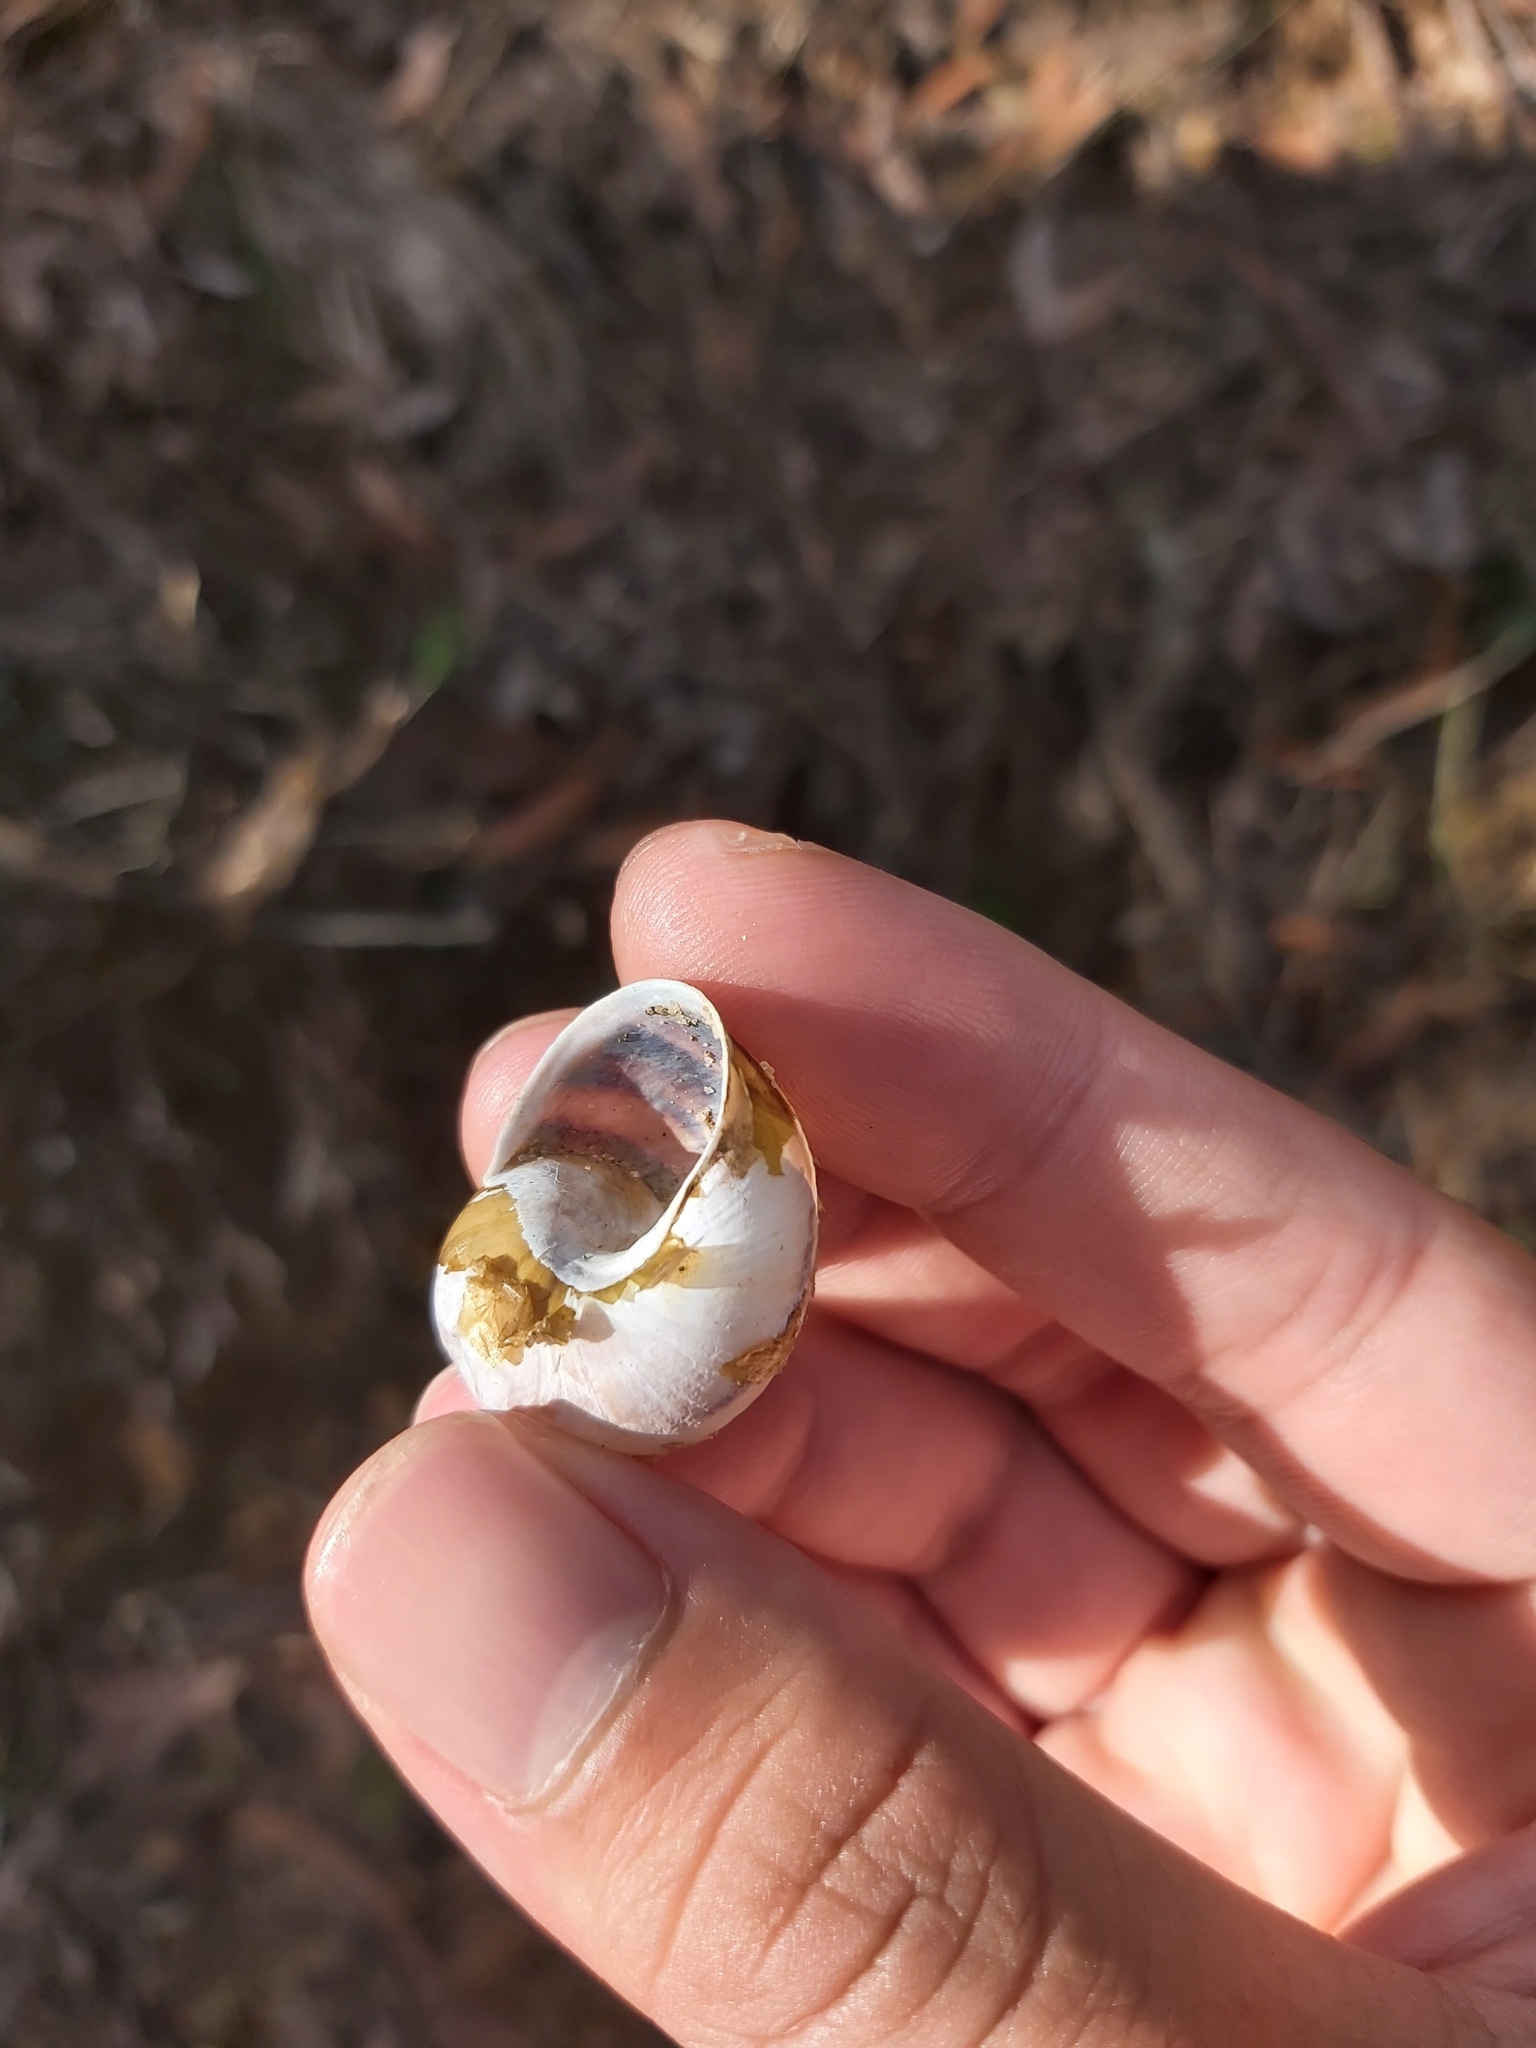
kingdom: Animalia
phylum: Mollusca
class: Gastropoda
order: Stylommatophora
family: Helicidae
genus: Cornu
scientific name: Cornu aspersum
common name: Brown garden snail
